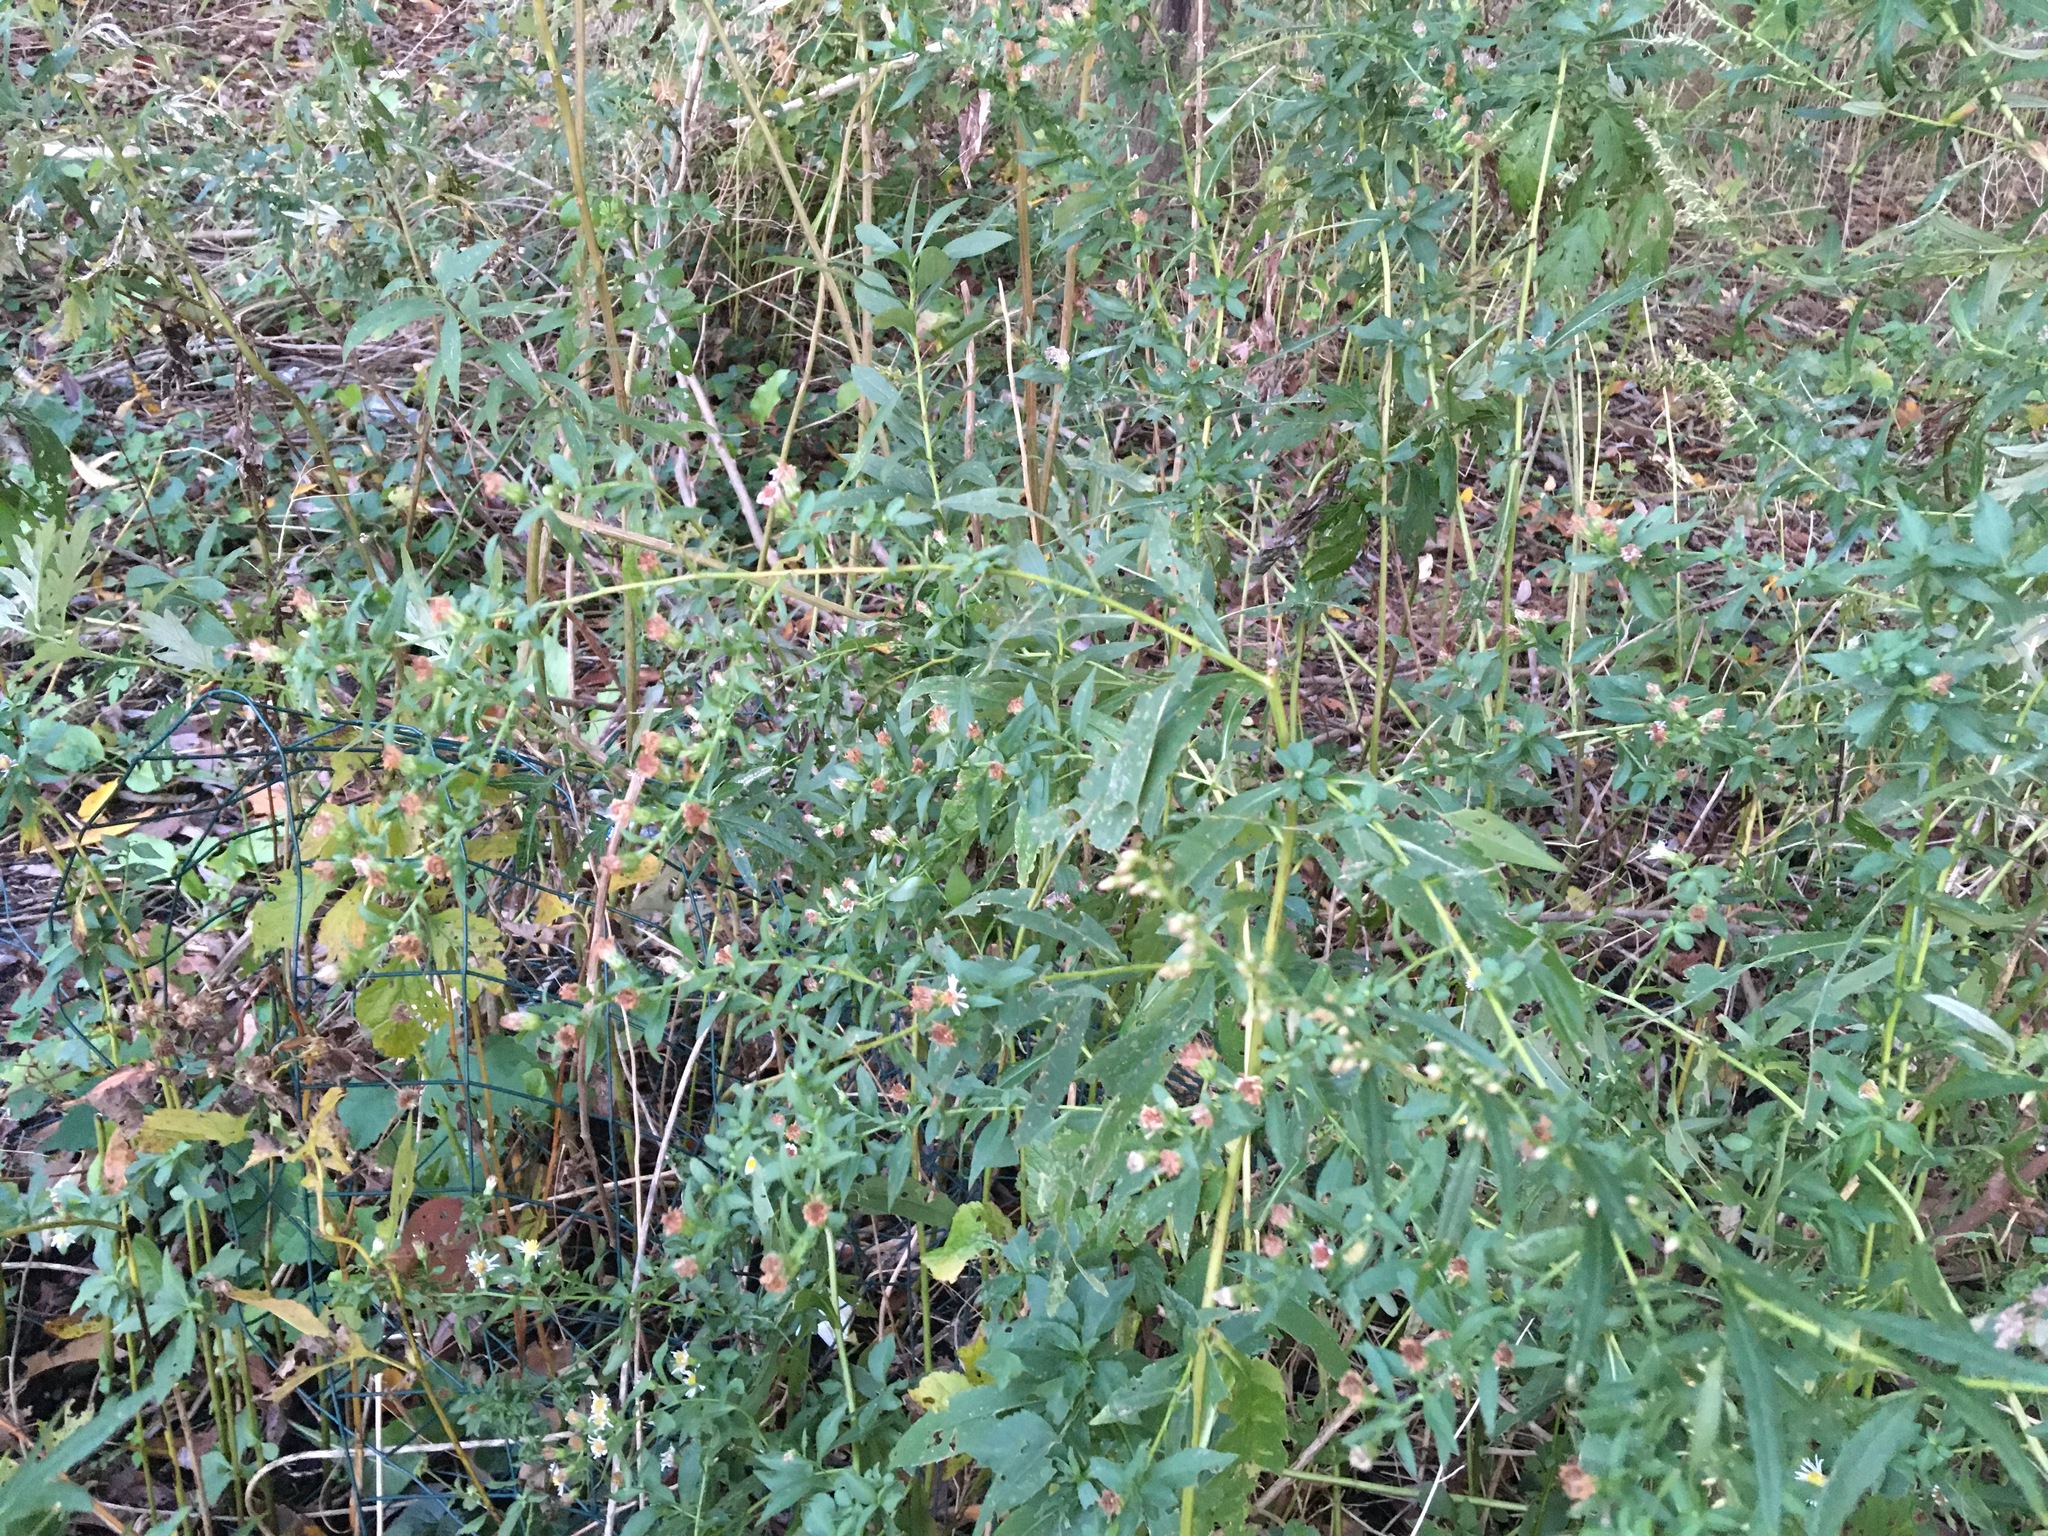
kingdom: Plantae
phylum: Tracheophyta
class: Magnoliopsida
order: Asterales
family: Asteraceae
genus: Artemisia
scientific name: Artemisia vulgaris
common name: Mugwort
